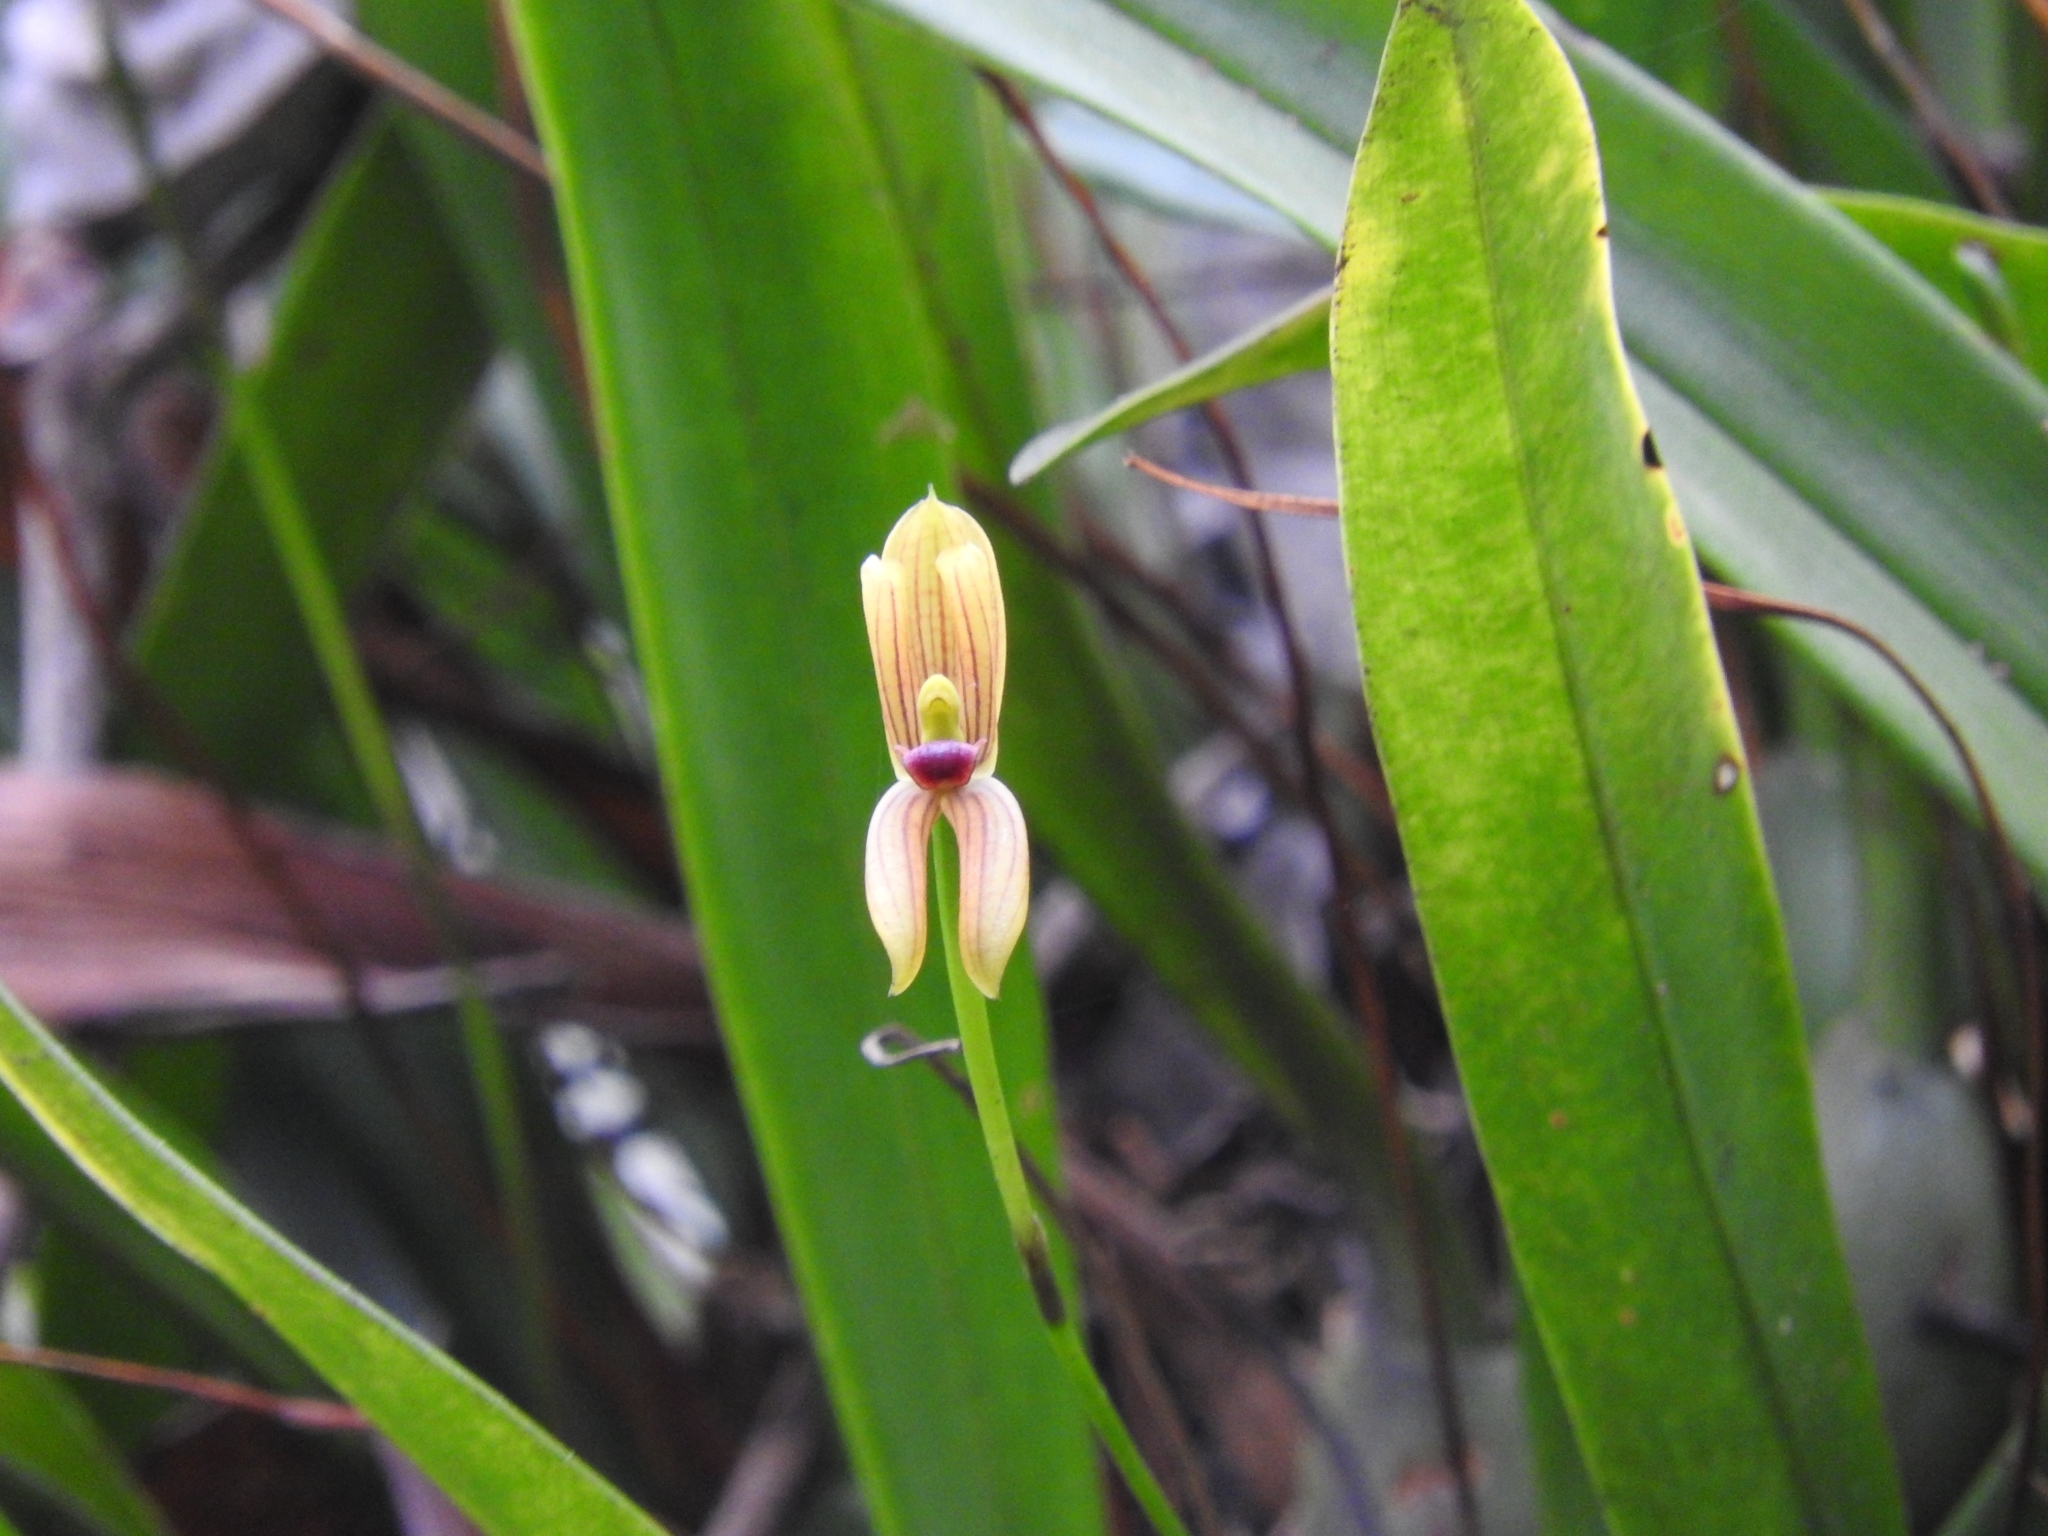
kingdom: Plantae
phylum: Tracheophyta
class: Liliopsida
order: Asparagales
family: Orchidaceae
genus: Maxillaria
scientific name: Maxillaria lineolata
